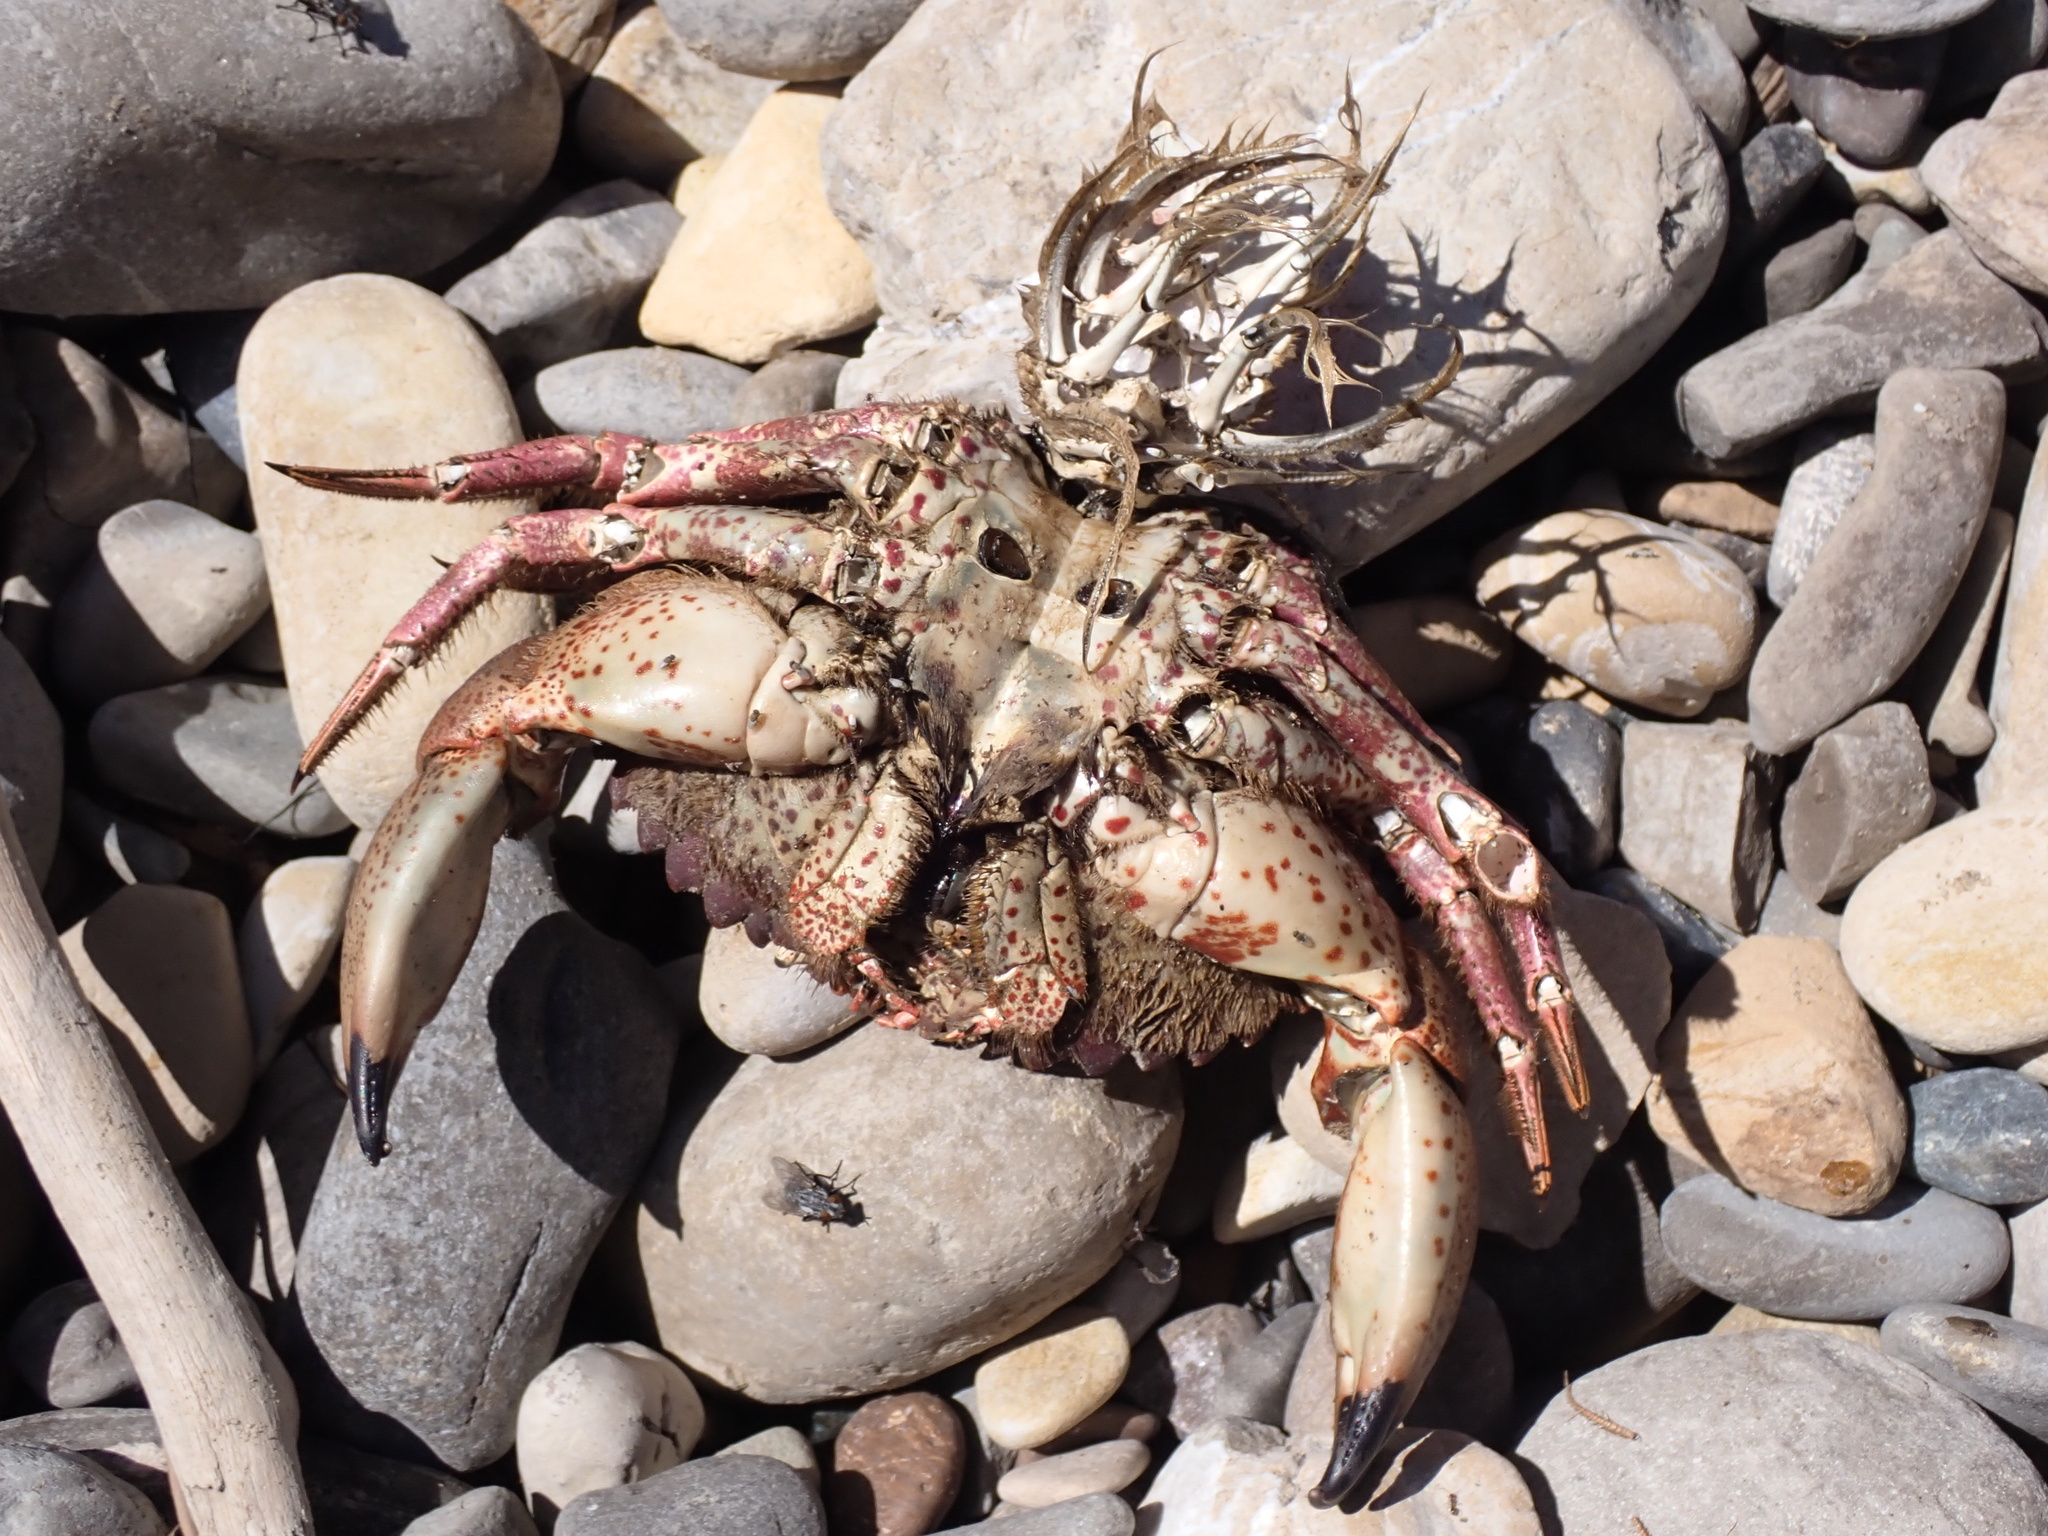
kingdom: Animalia
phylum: Arthropoda
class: Malacostraca
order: Decapoda
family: Cancridae
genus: Romaleon
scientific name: Romaleon antennarium
